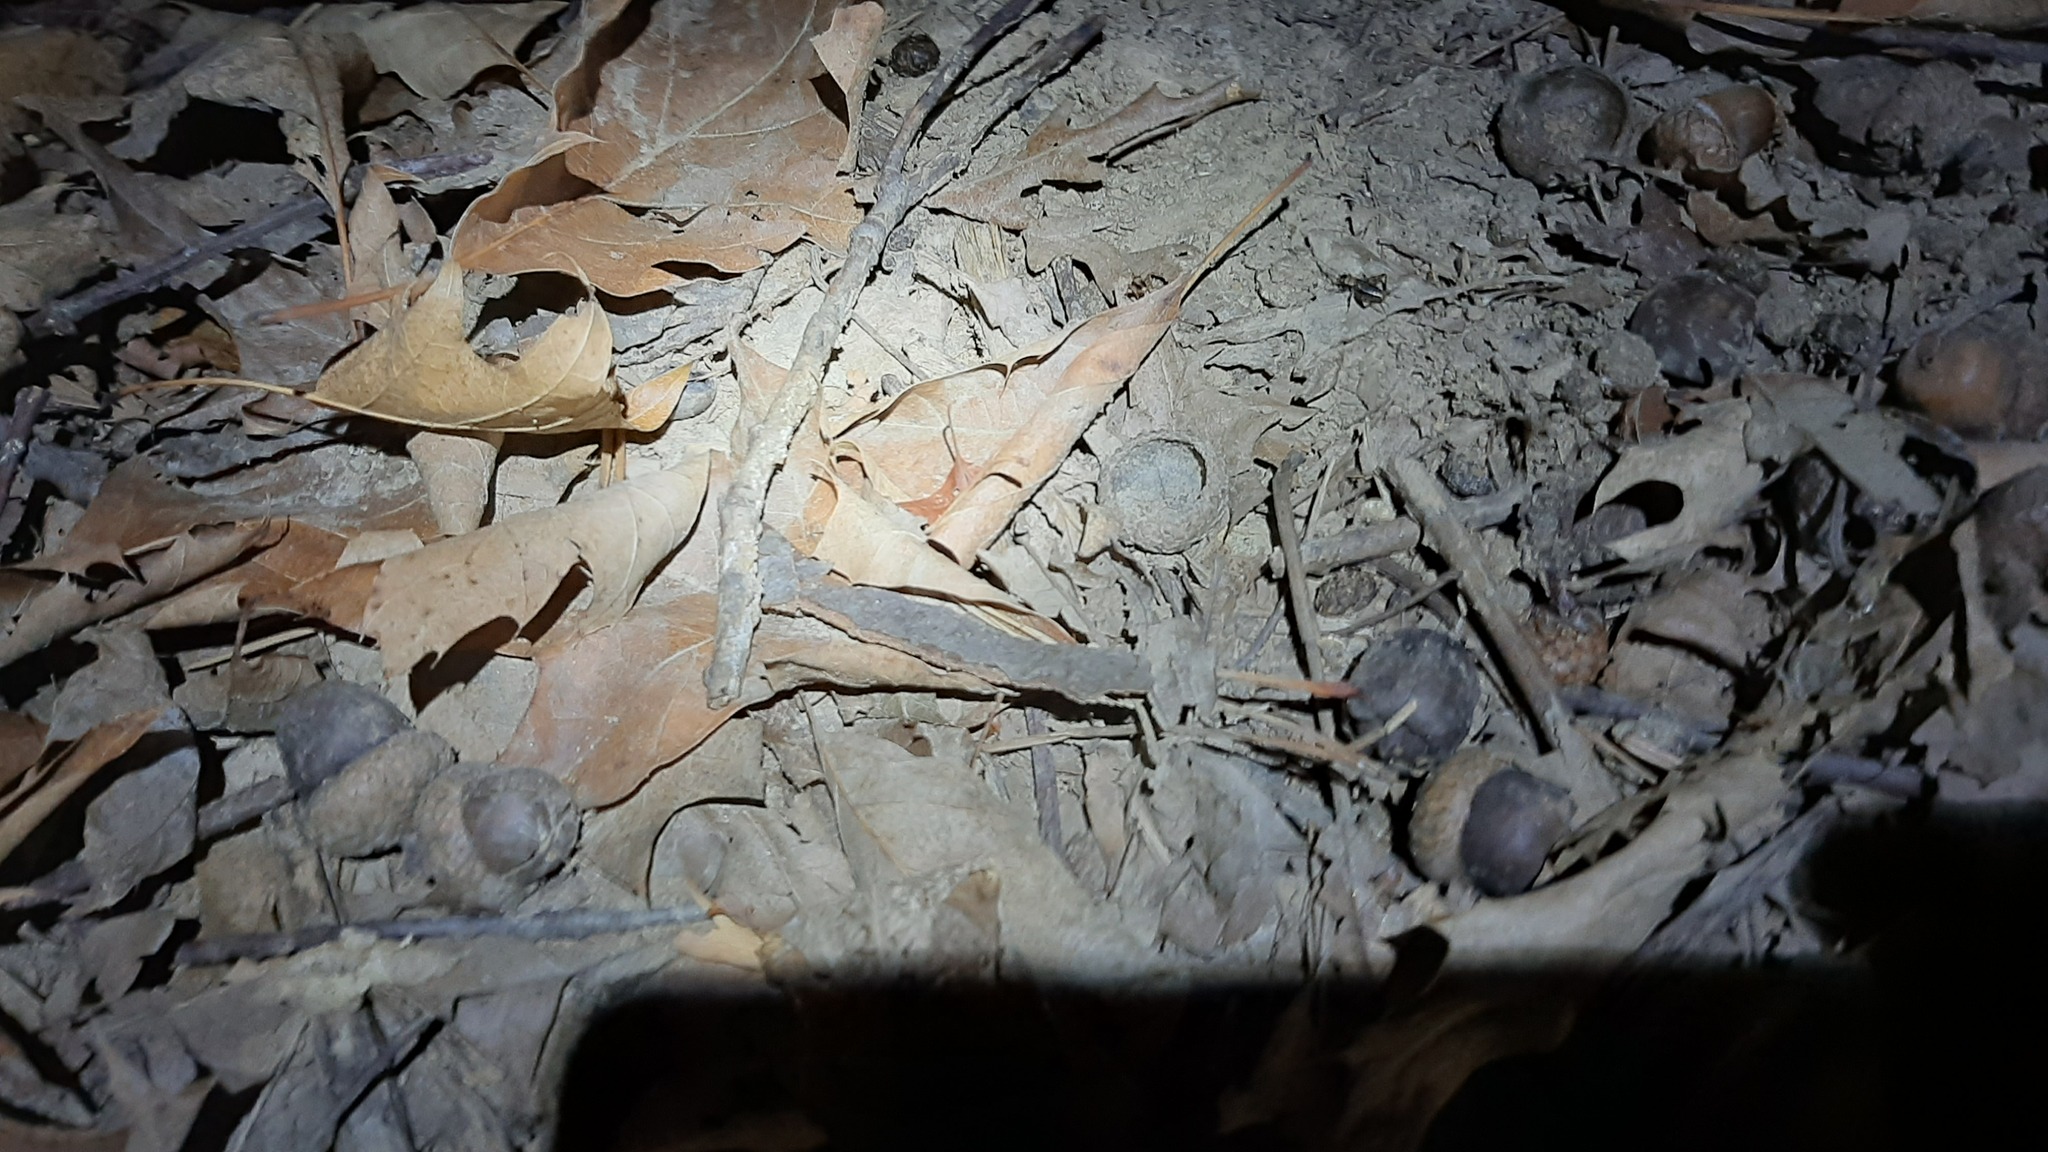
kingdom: Animalia
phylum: Arthropoda
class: Insecta
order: Orthoptera
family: Trigonidiidae
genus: Nemobius
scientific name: Nemobius sylvestris
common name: Wood-cricket
